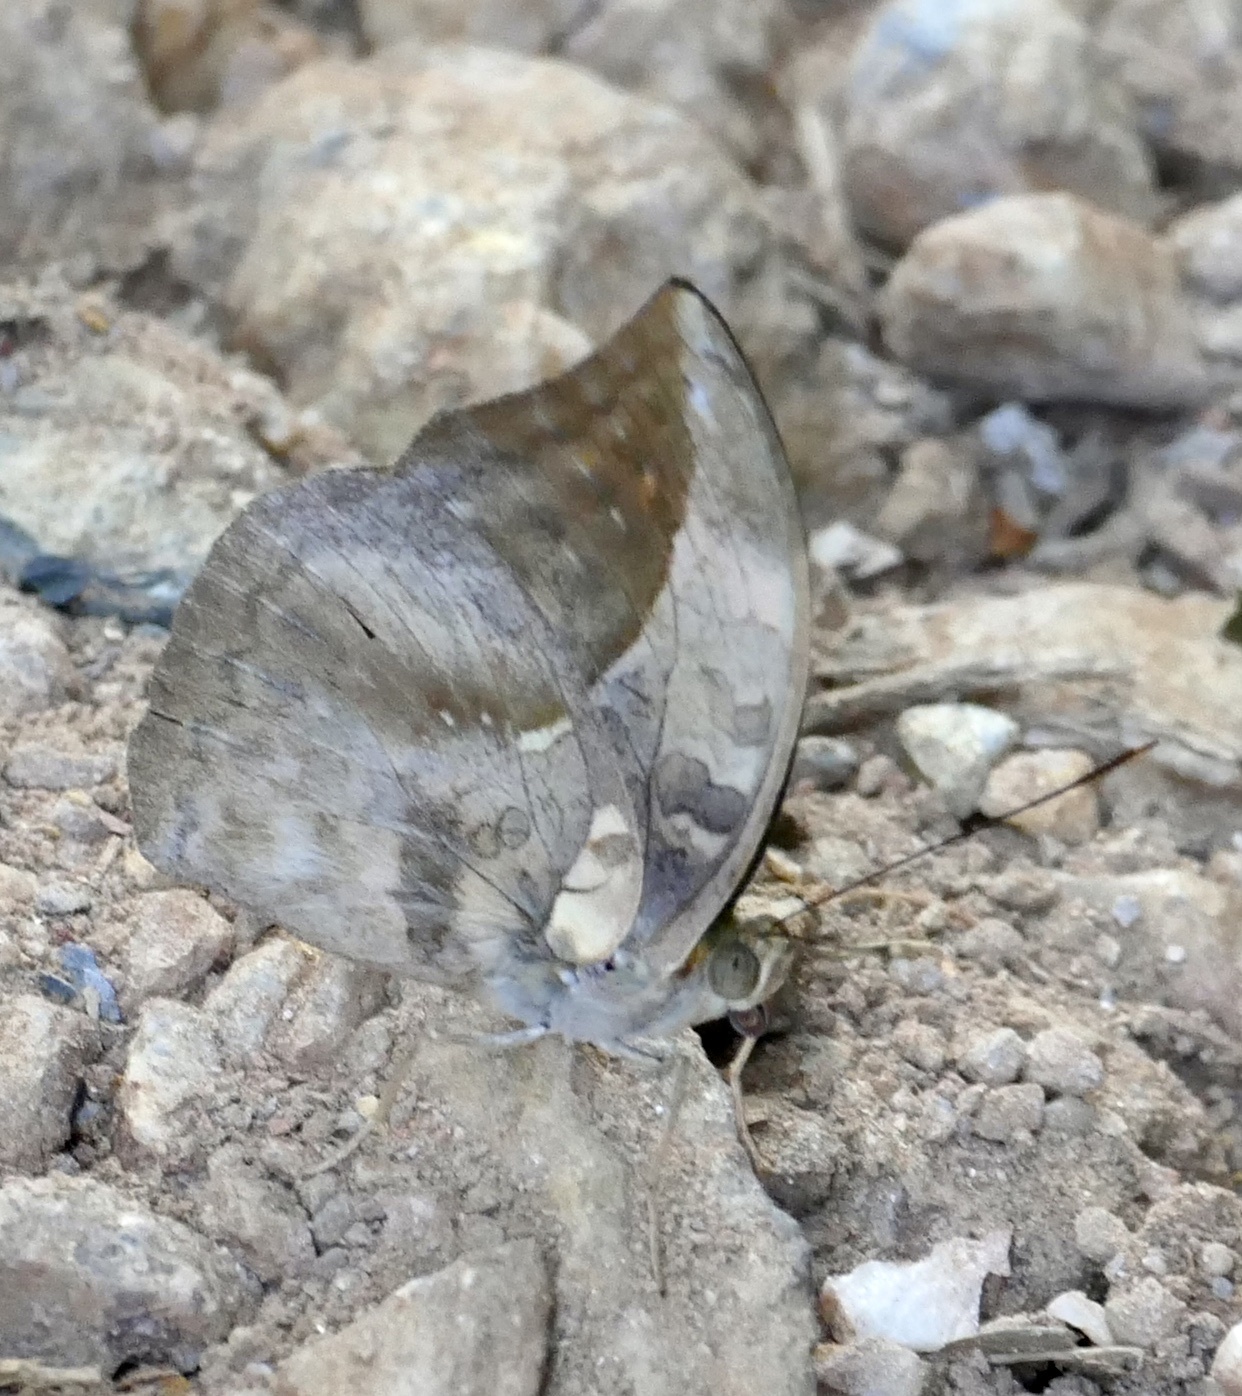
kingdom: Animalia
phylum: Arthropoda
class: Insecta
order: Lepidoptera
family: Nymphalidae
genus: Bebearia
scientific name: Bebearia sophus
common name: Sophus forester
